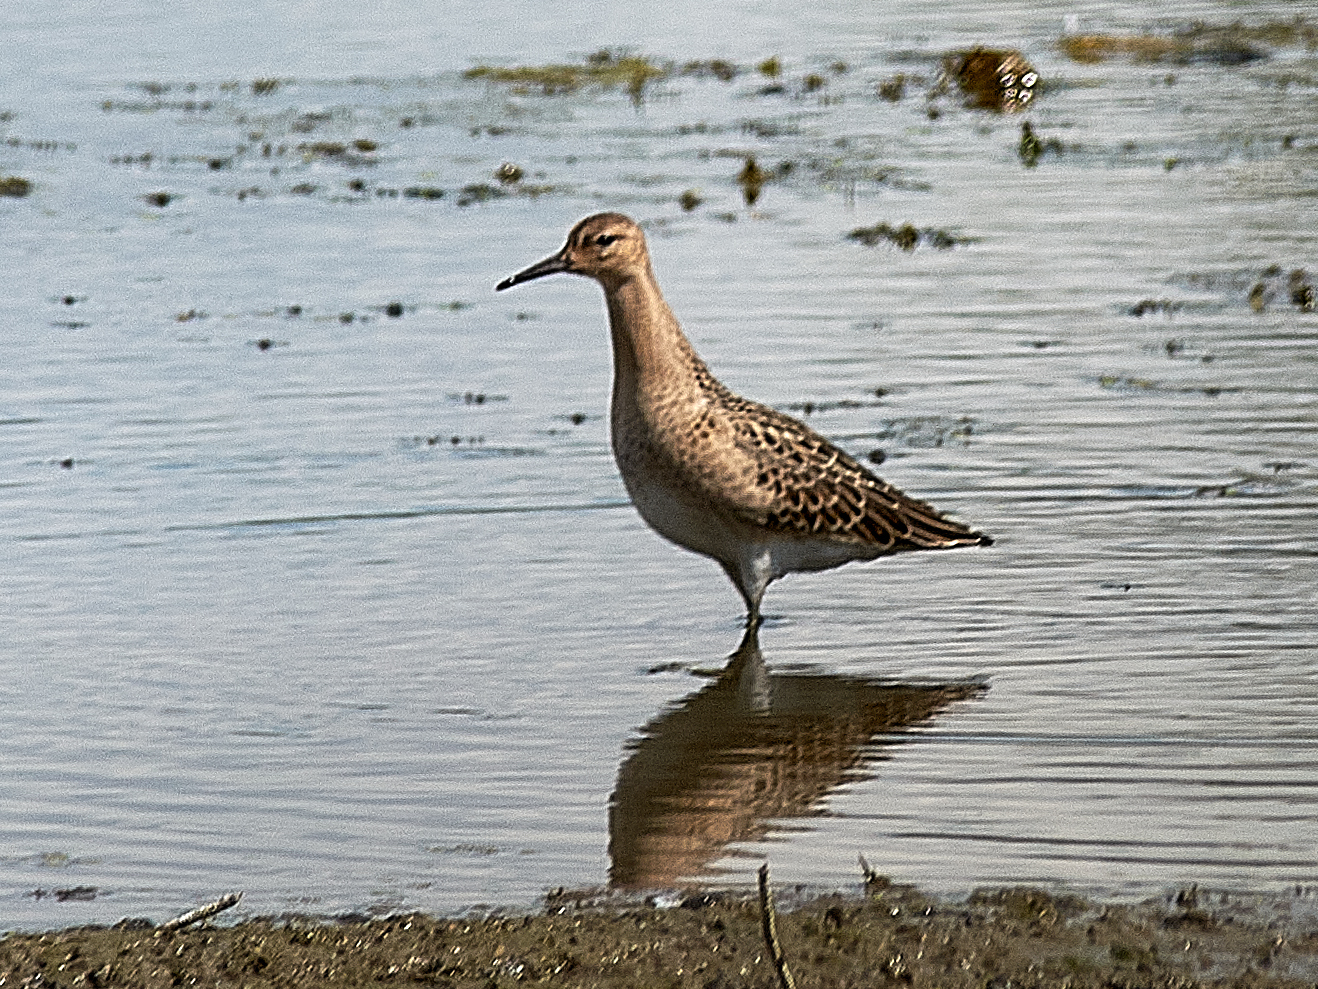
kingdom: Animalia
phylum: Chordata
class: Aves
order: Charadriiformes
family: Scolopacidae
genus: Calidris
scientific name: Calidris pugnax
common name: Ruff
